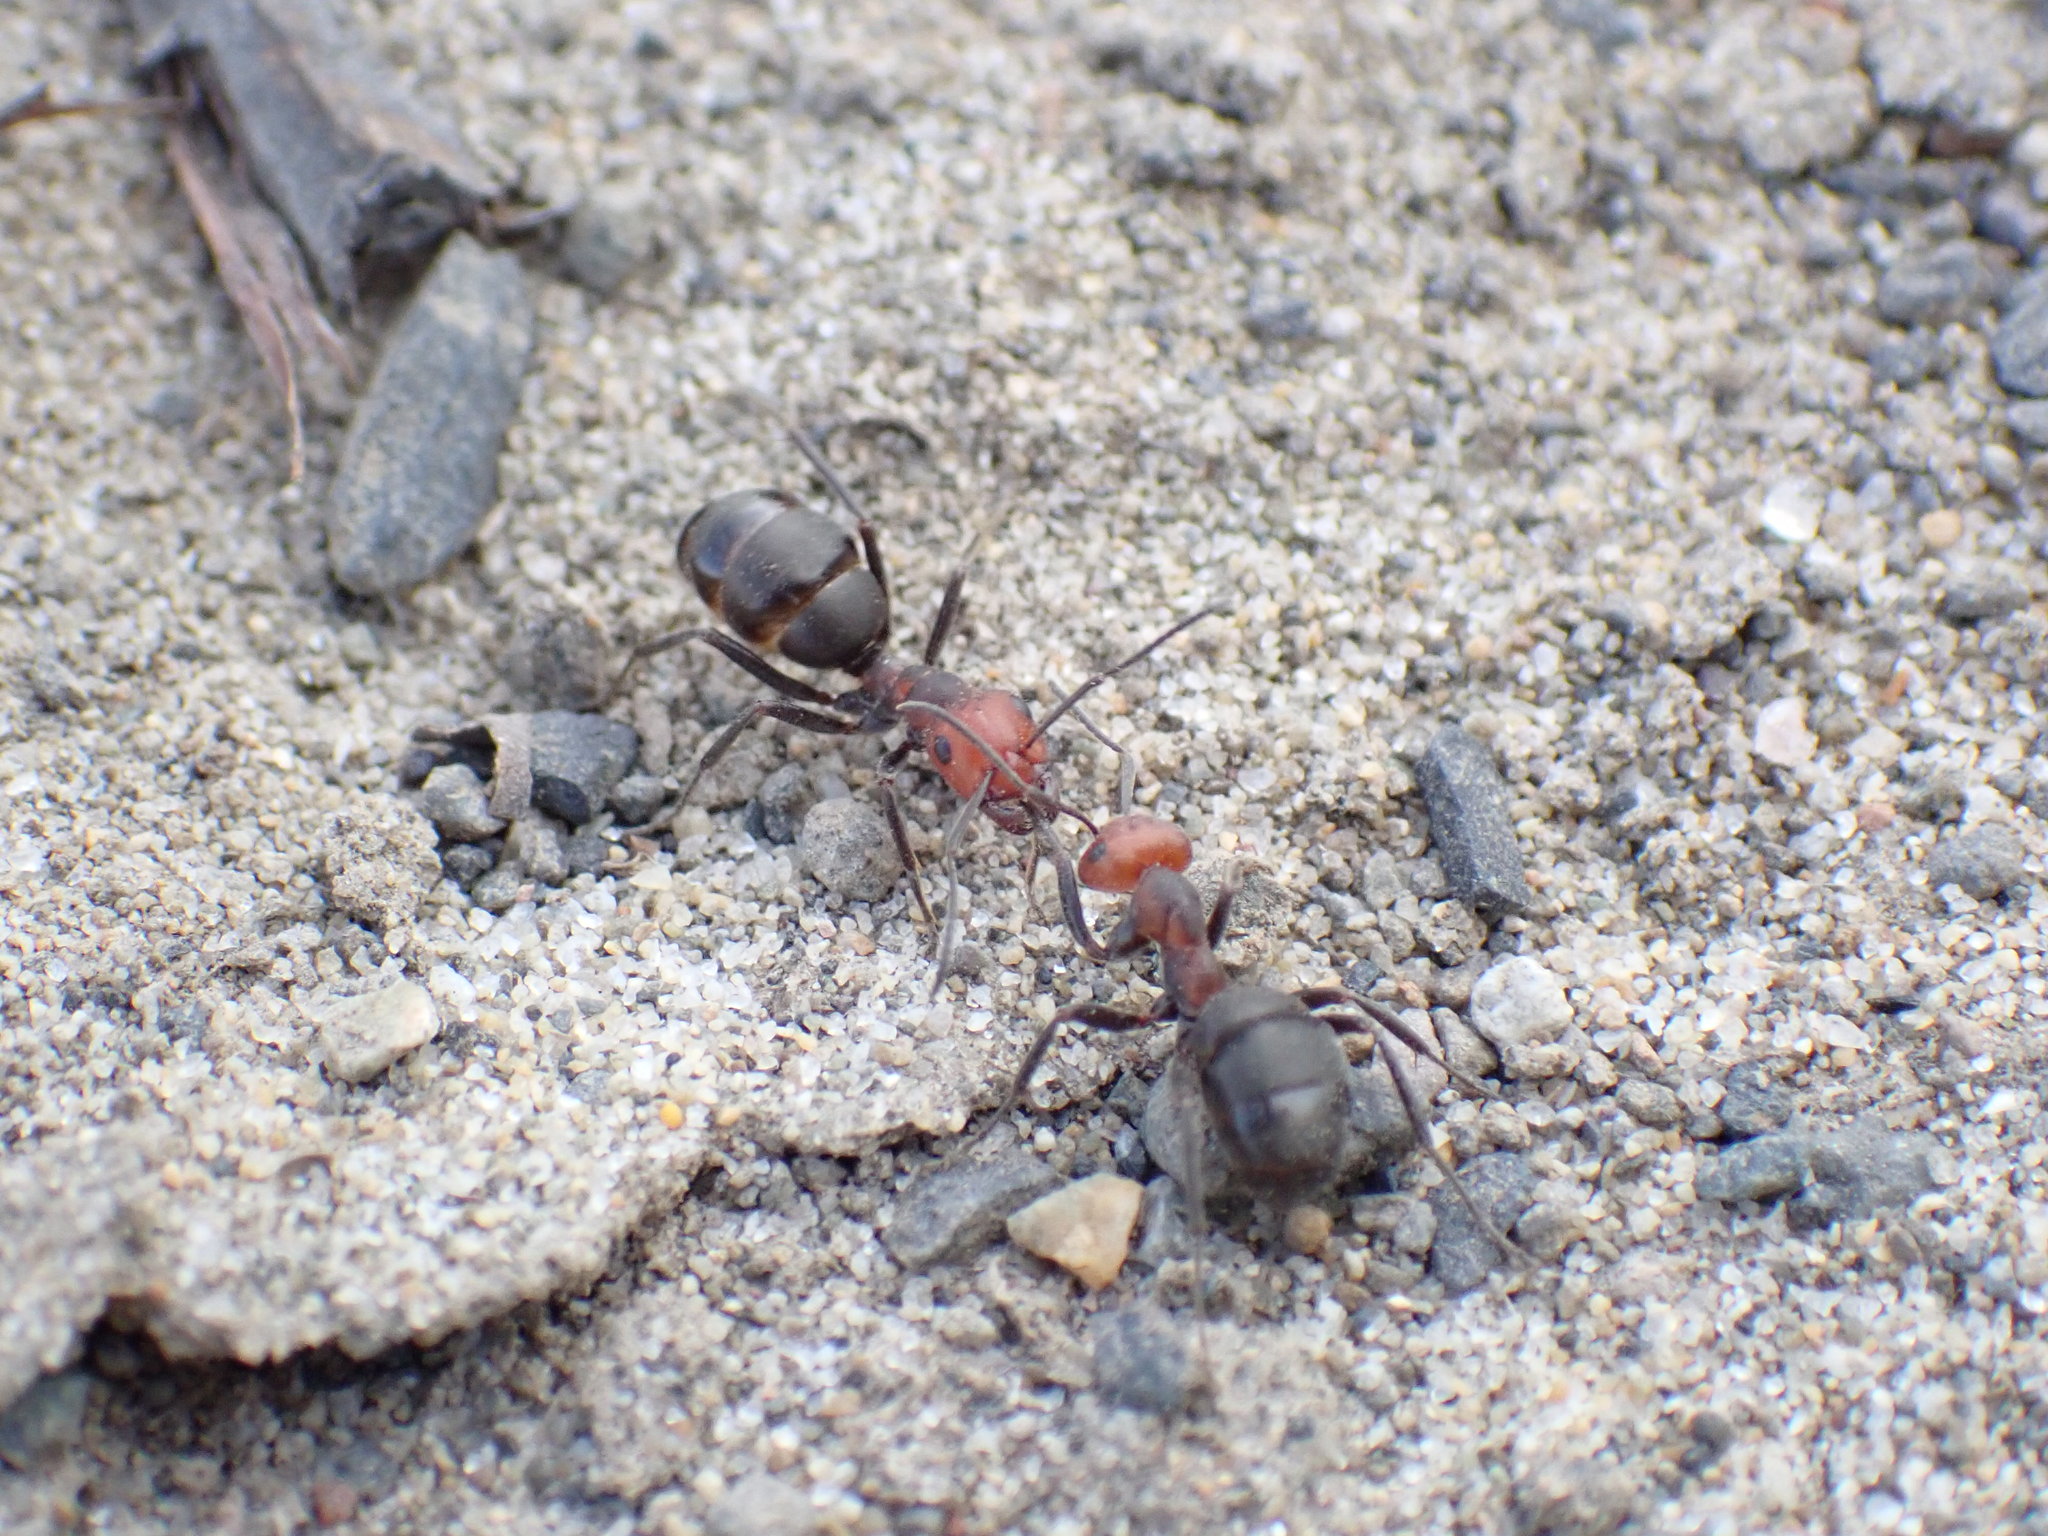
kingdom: Animalia
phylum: Arthropoda
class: Insecta
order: Hymenoptera
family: Formicidae
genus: Formica
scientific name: Formica obscuripes
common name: Western thatching ant
